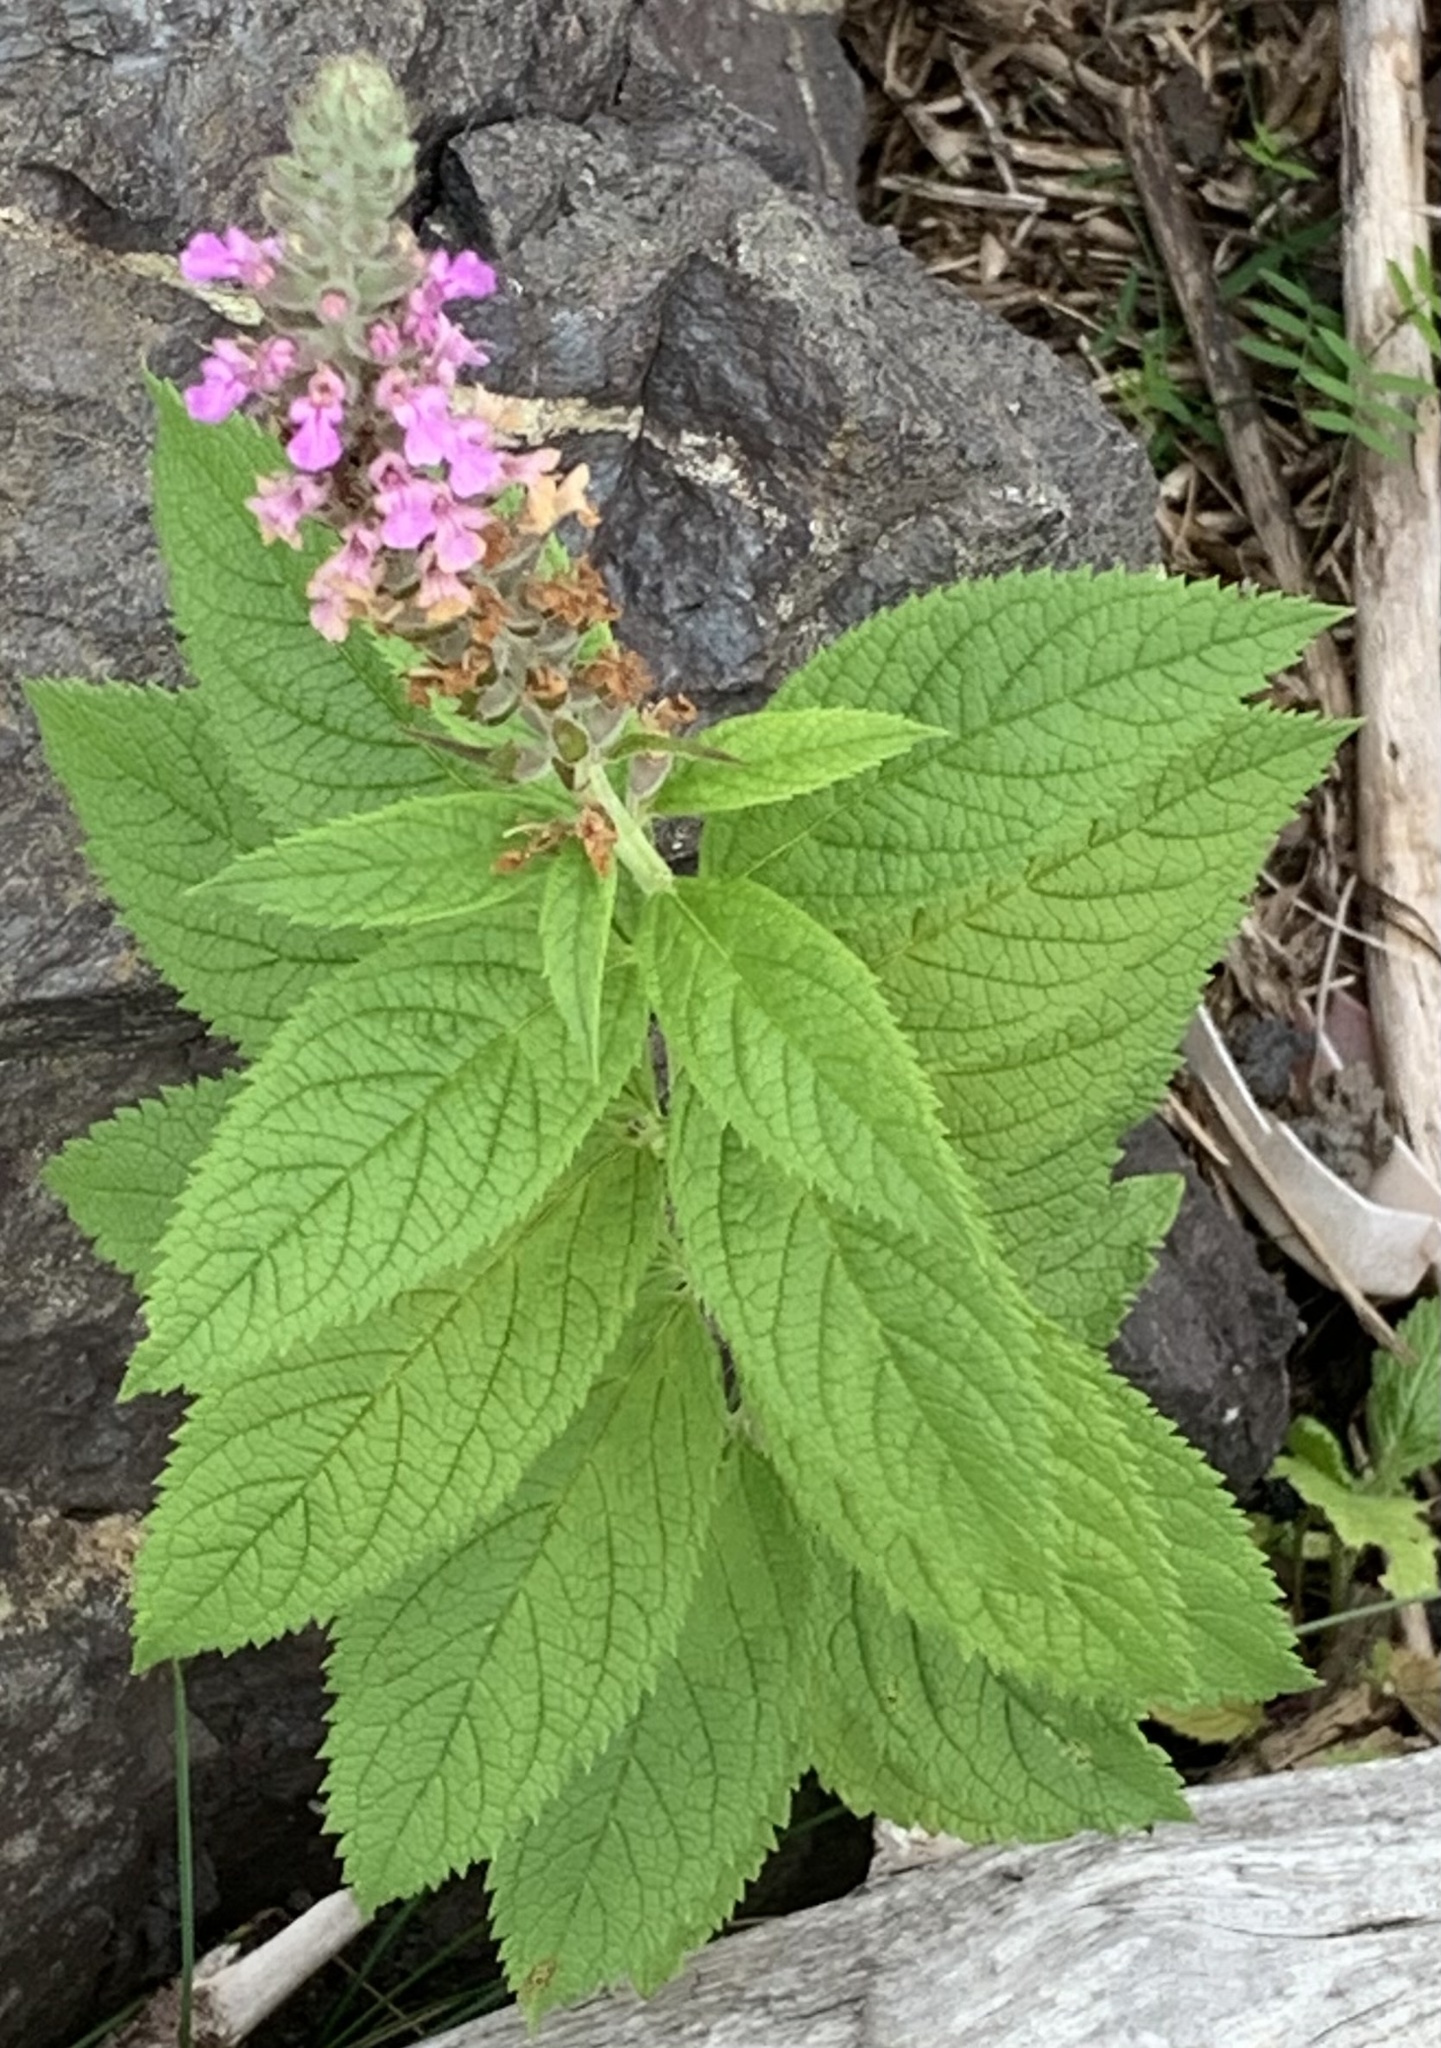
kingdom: Plantae
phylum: Tracheophyta
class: Magnoliopsida
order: Lamiales
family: Lamiaceae
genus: Teucrium
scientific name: Teucrium canadense
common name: American germander
